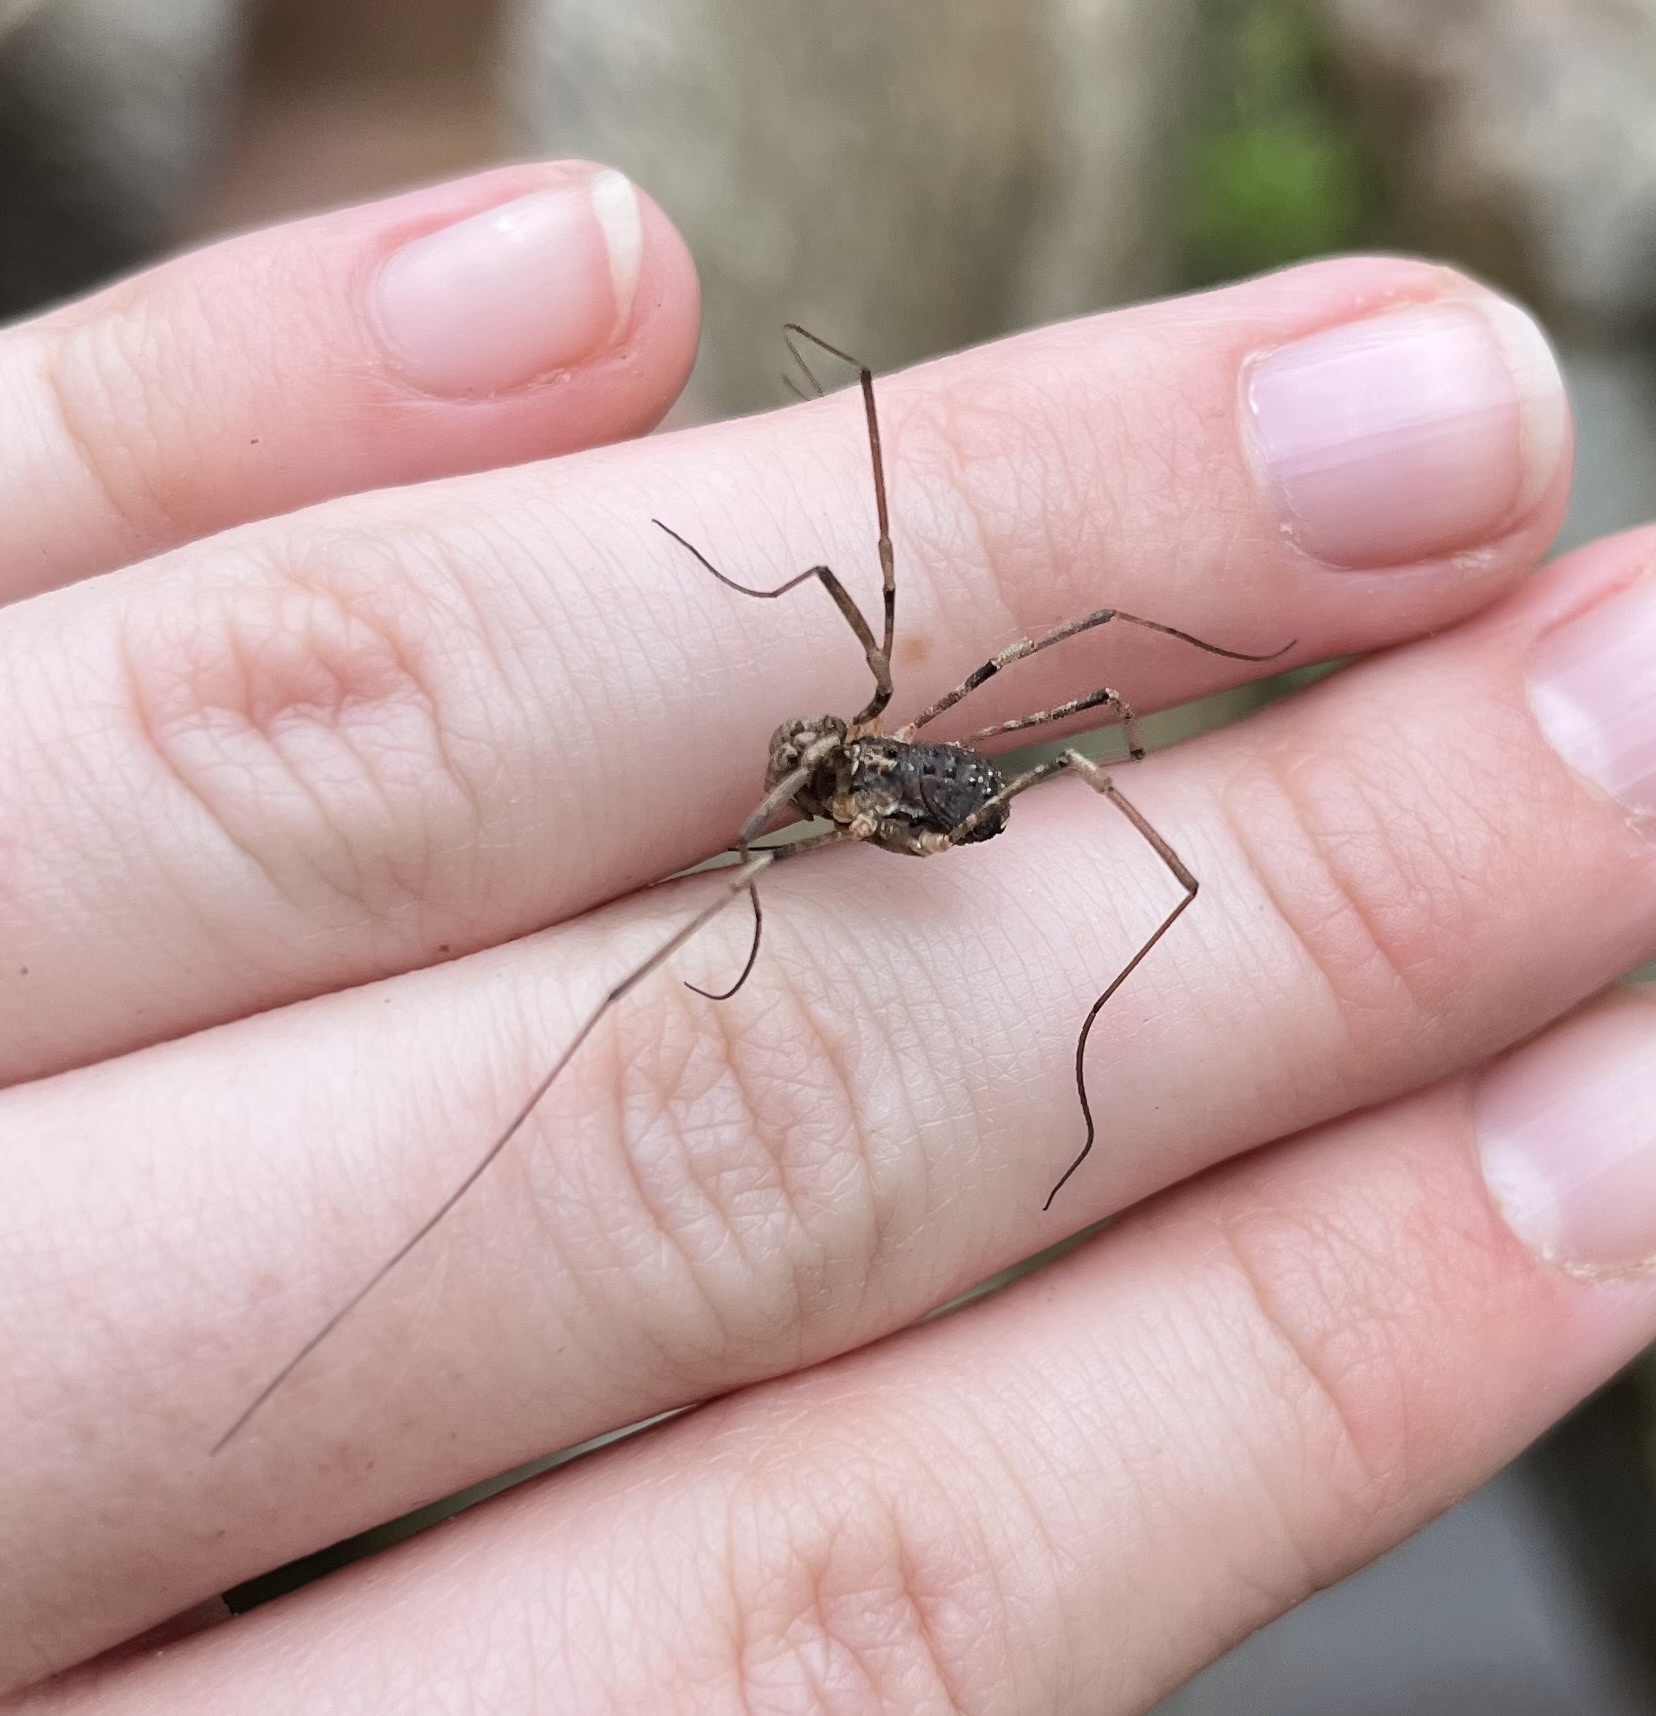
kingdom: Animalia
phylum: Arthropoda
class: Arachnida
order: Opiliones
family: Protolophidae
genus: Protolophus
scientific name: Protolophus singularis
